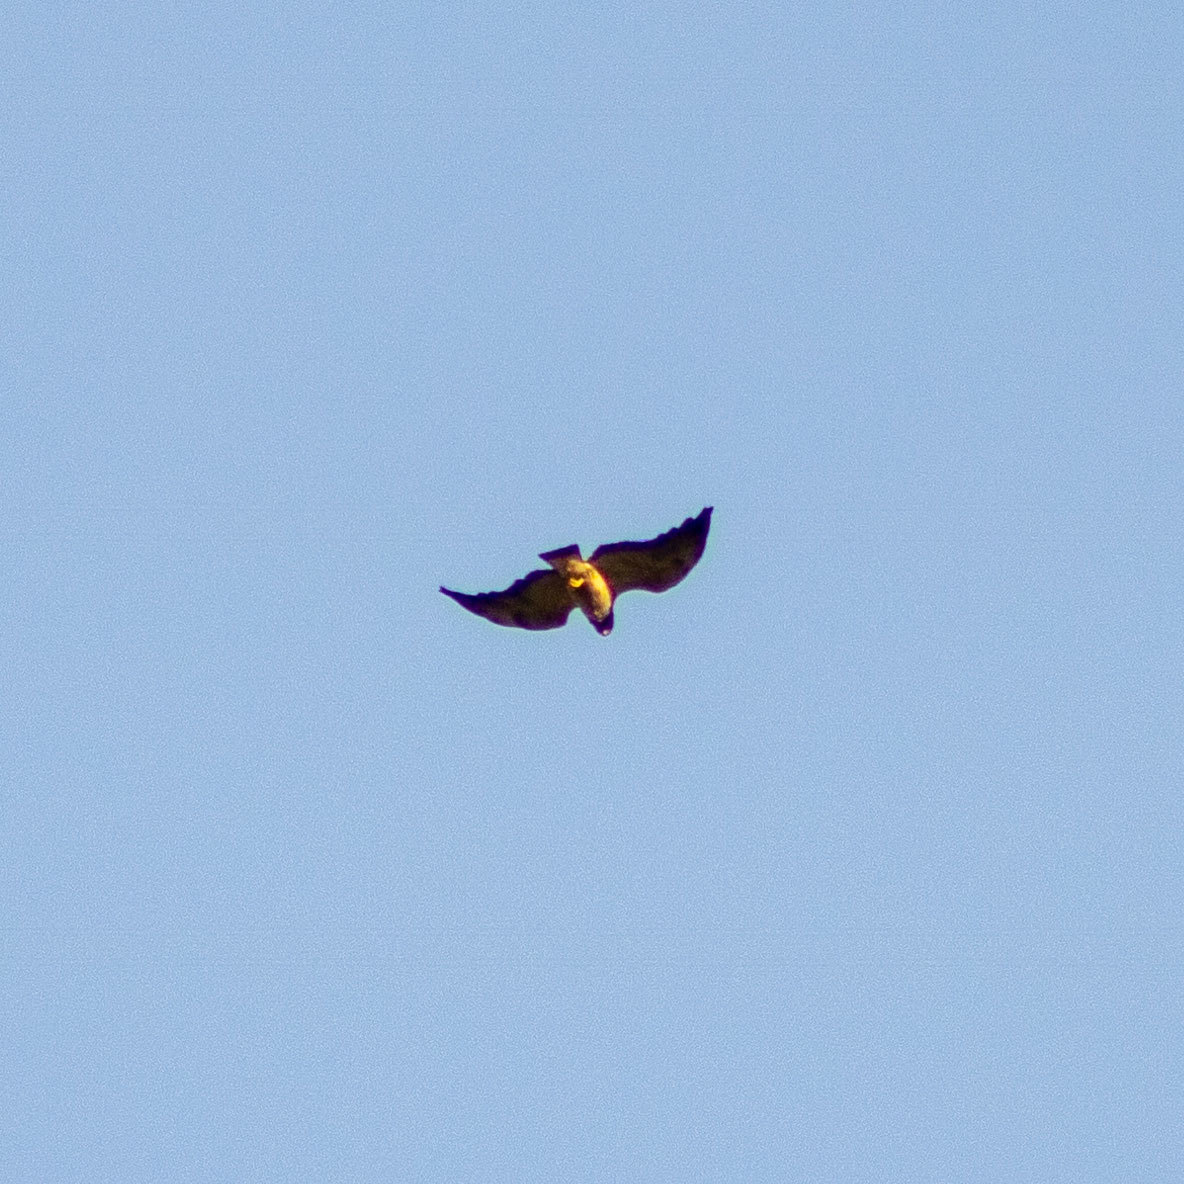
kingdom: Animalia
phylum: Chordata
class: Aves
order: Accipitriformes
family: Accipitridae
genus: Buteo
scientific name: Buteo albicaudatus
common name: White-tailed hawk
